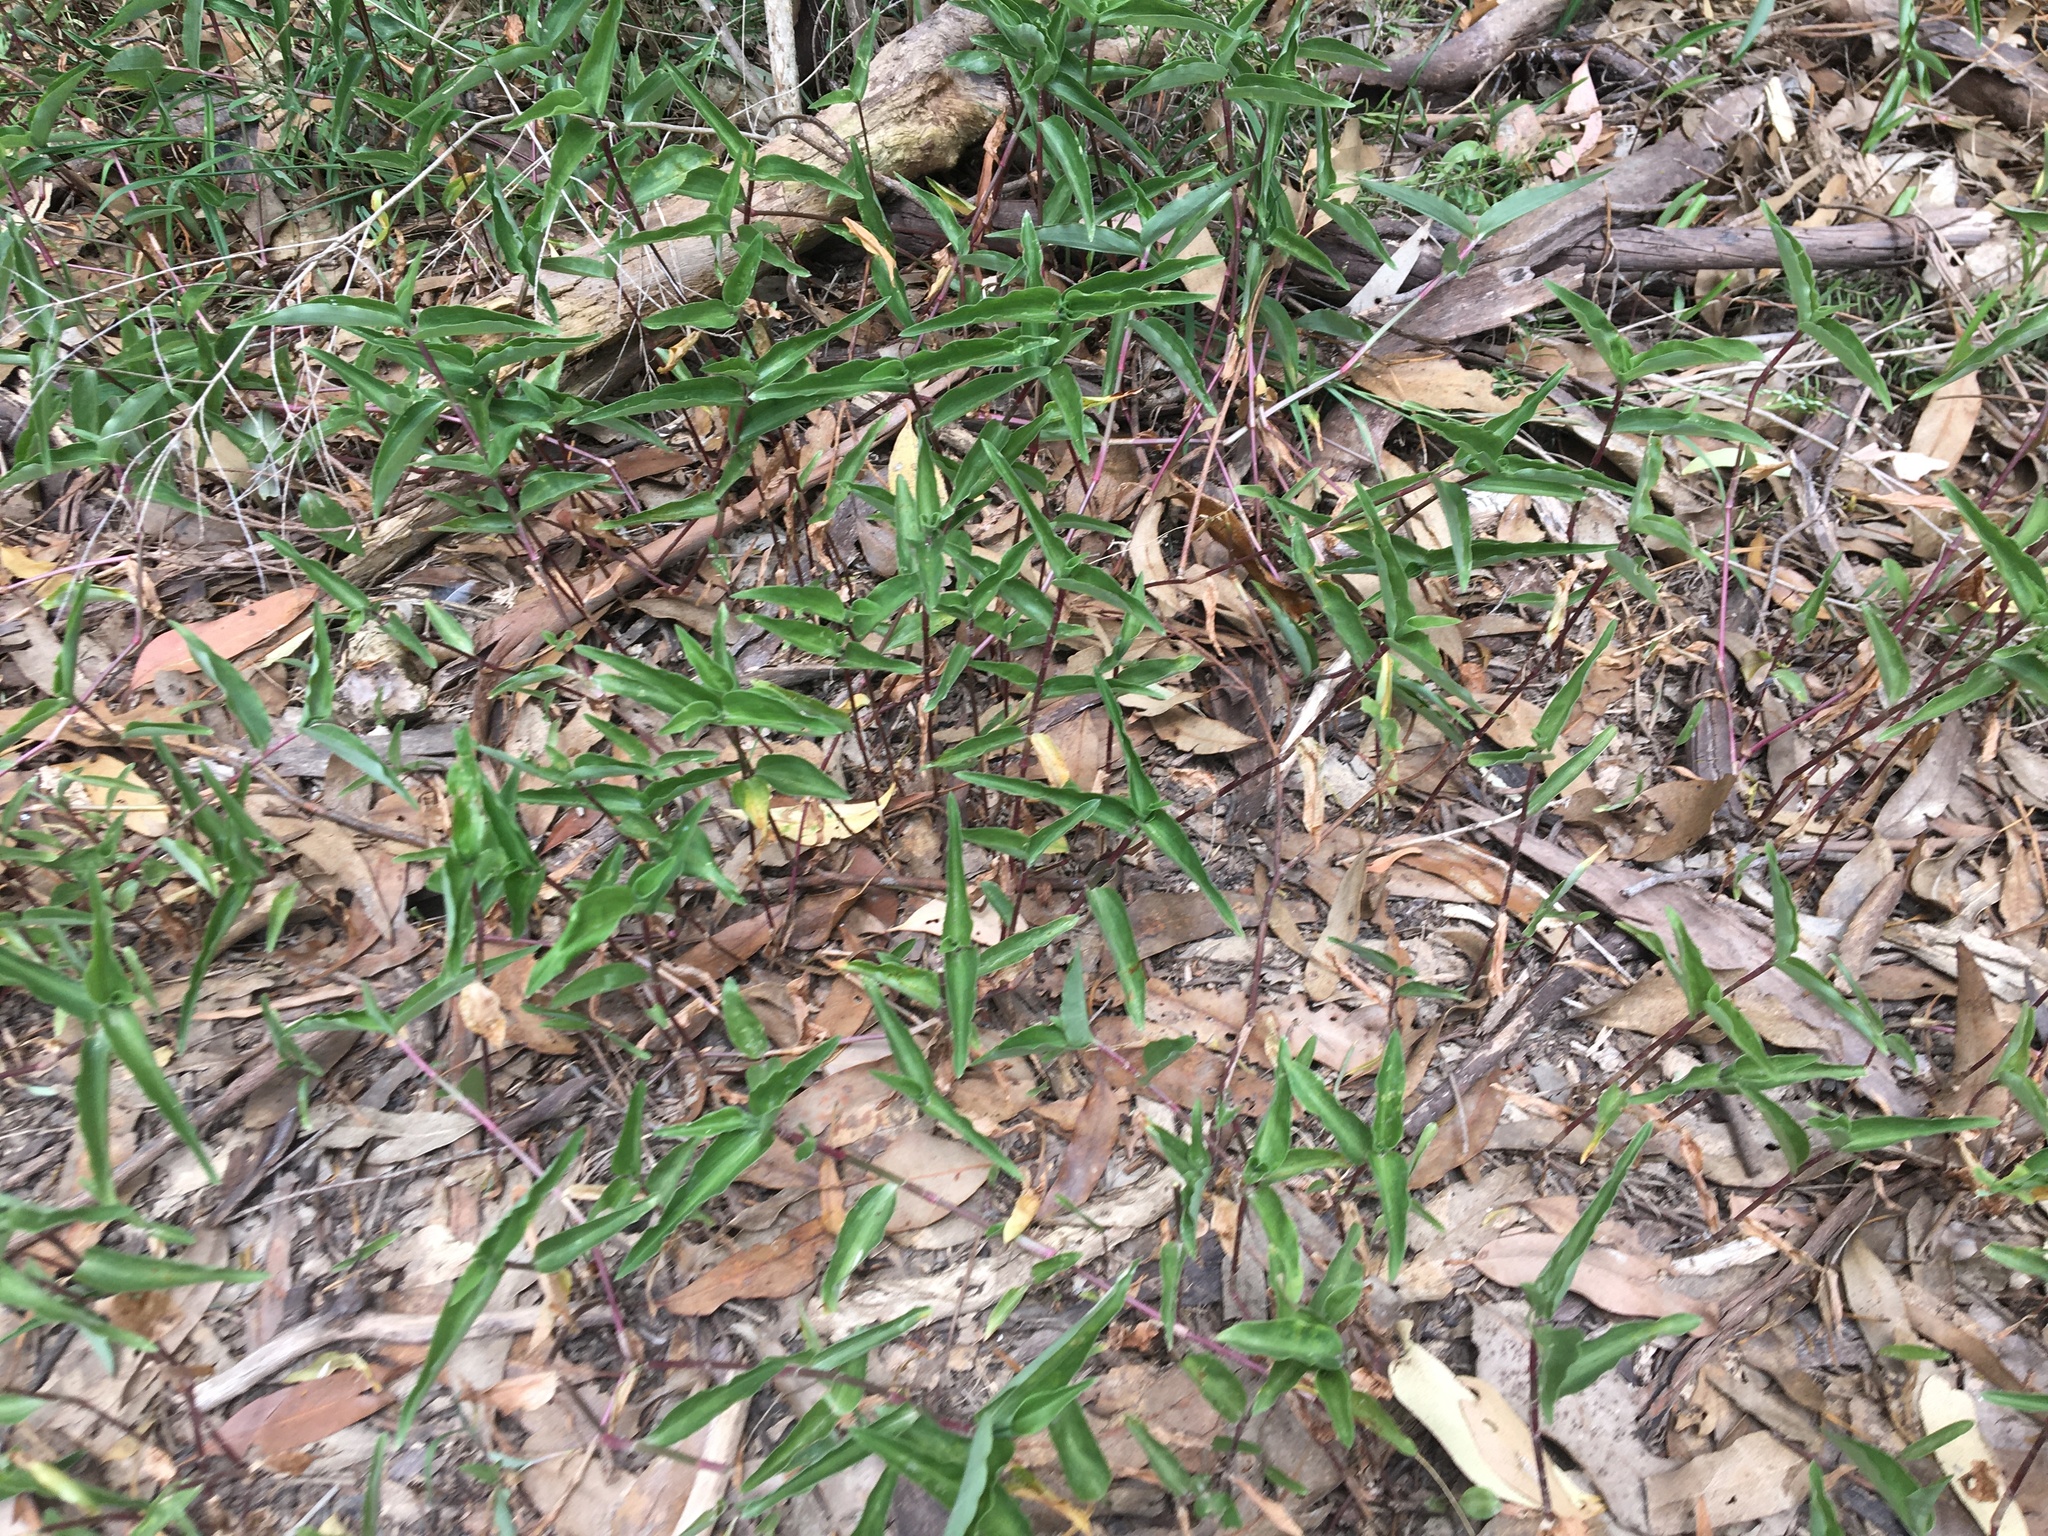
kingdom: Plantae
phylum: Tracheophyta
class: Liliopsida
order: Commelinales
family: Commelinaceae
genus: Commelina
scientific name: Commelina cyanea
